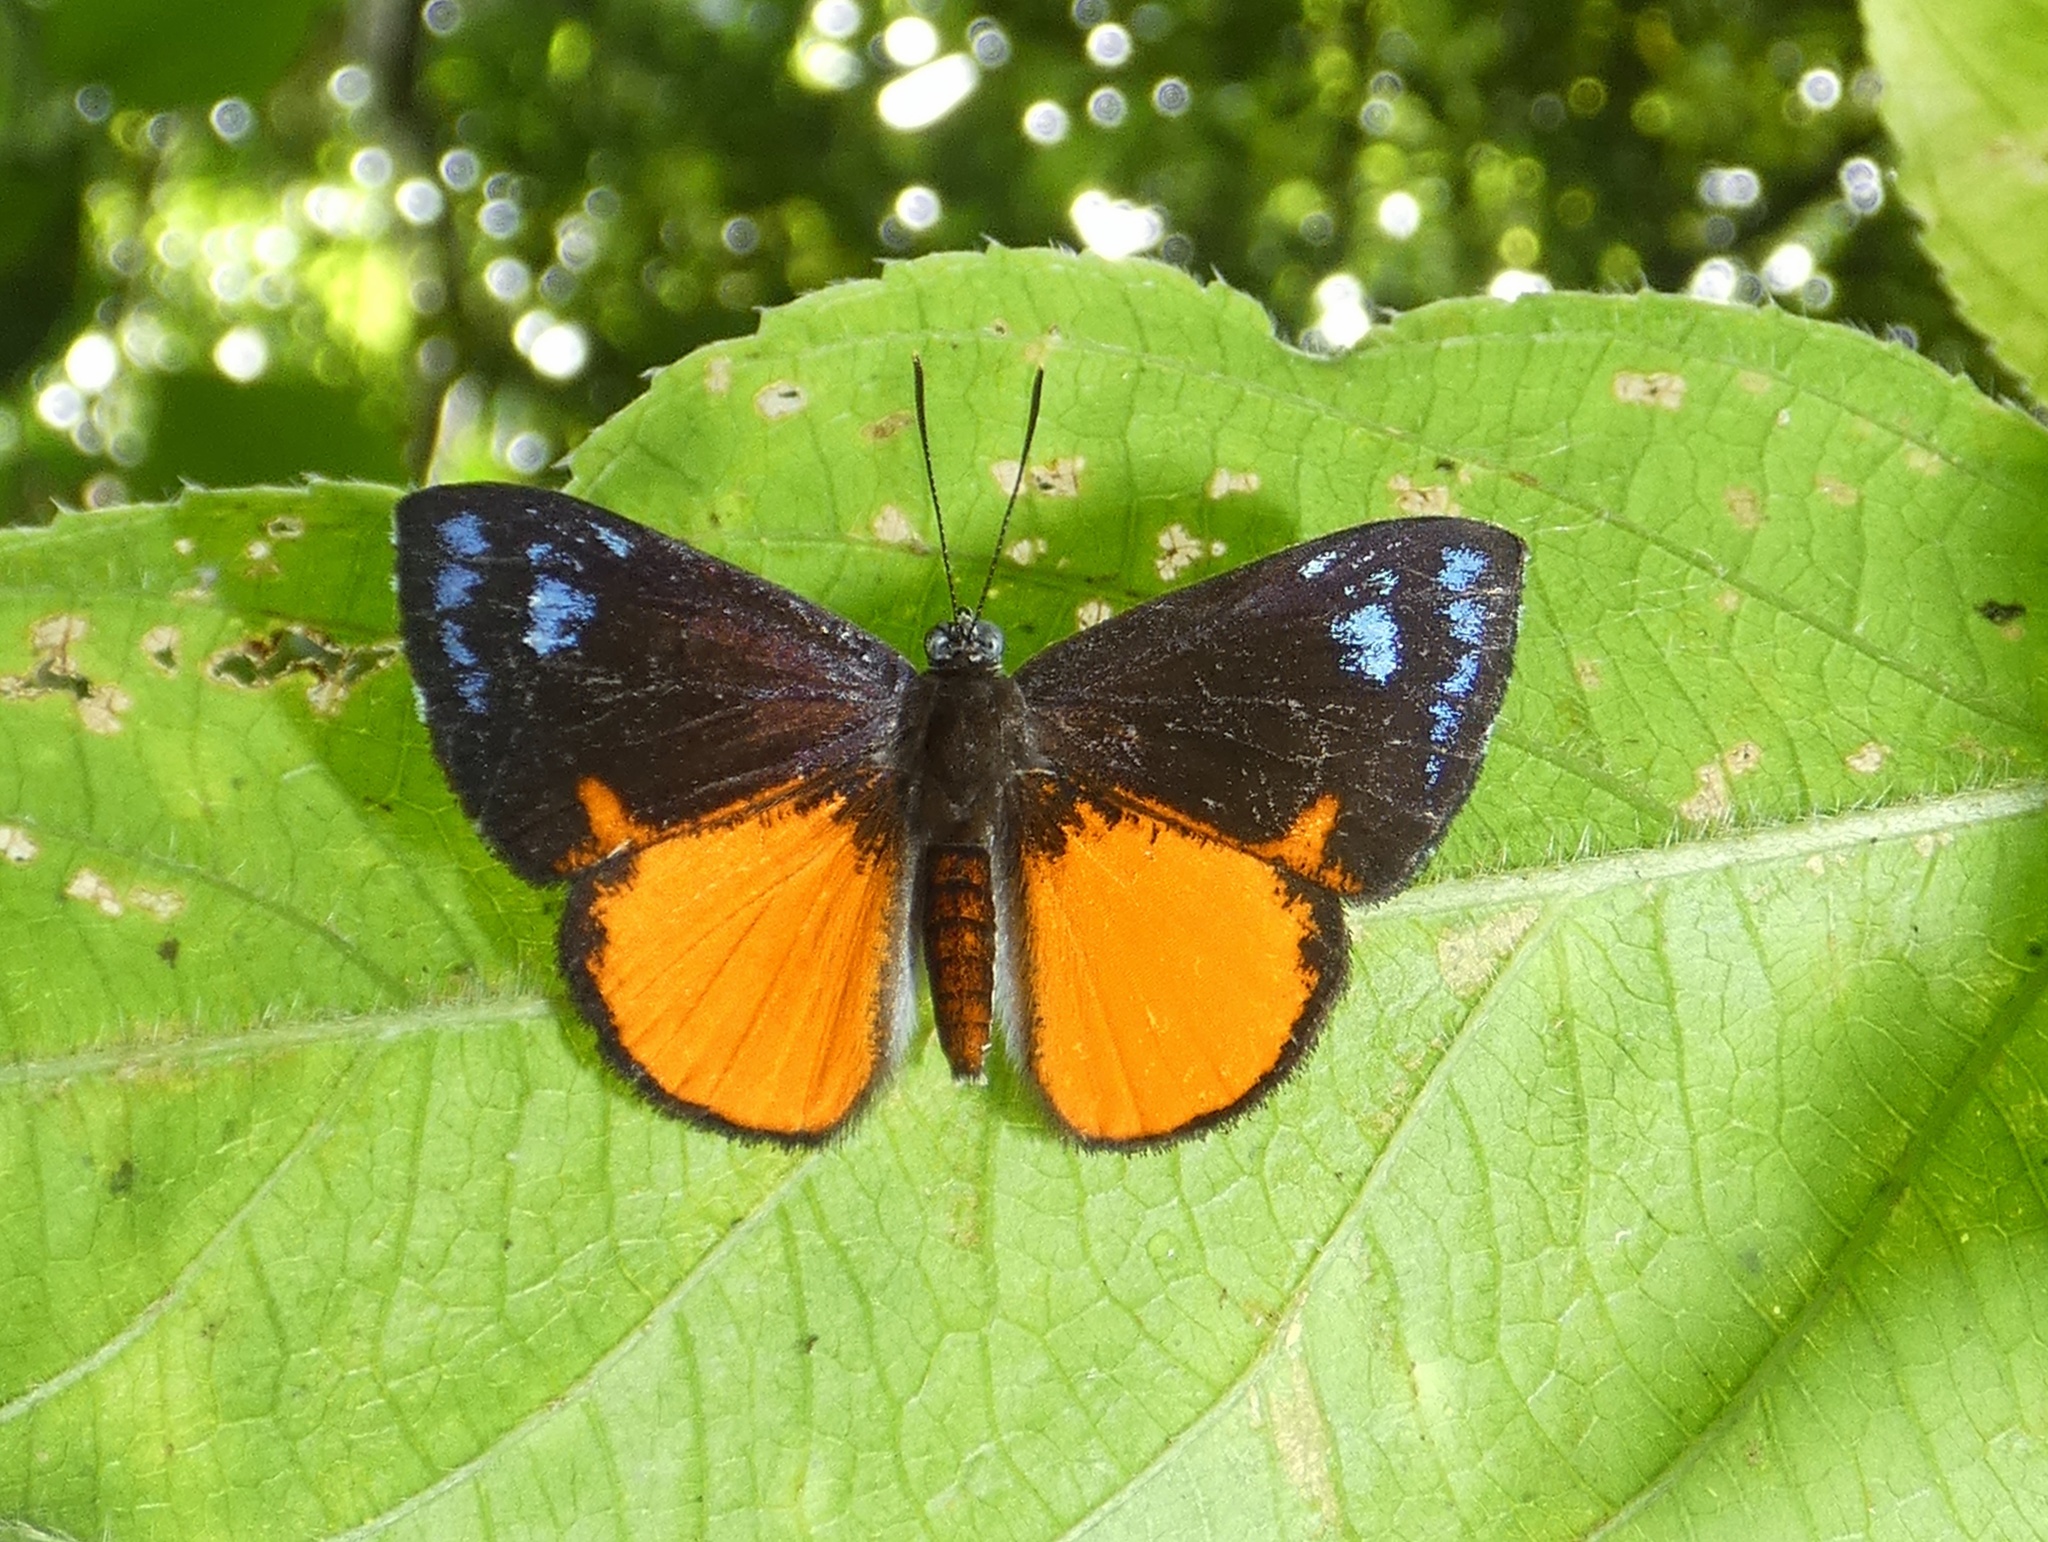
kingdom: Animalia
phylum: Arthropoda
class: Insecta
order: Lepidoptera
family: Riodinidae
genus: Polystichtis
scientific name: Polystichtis parthaon
